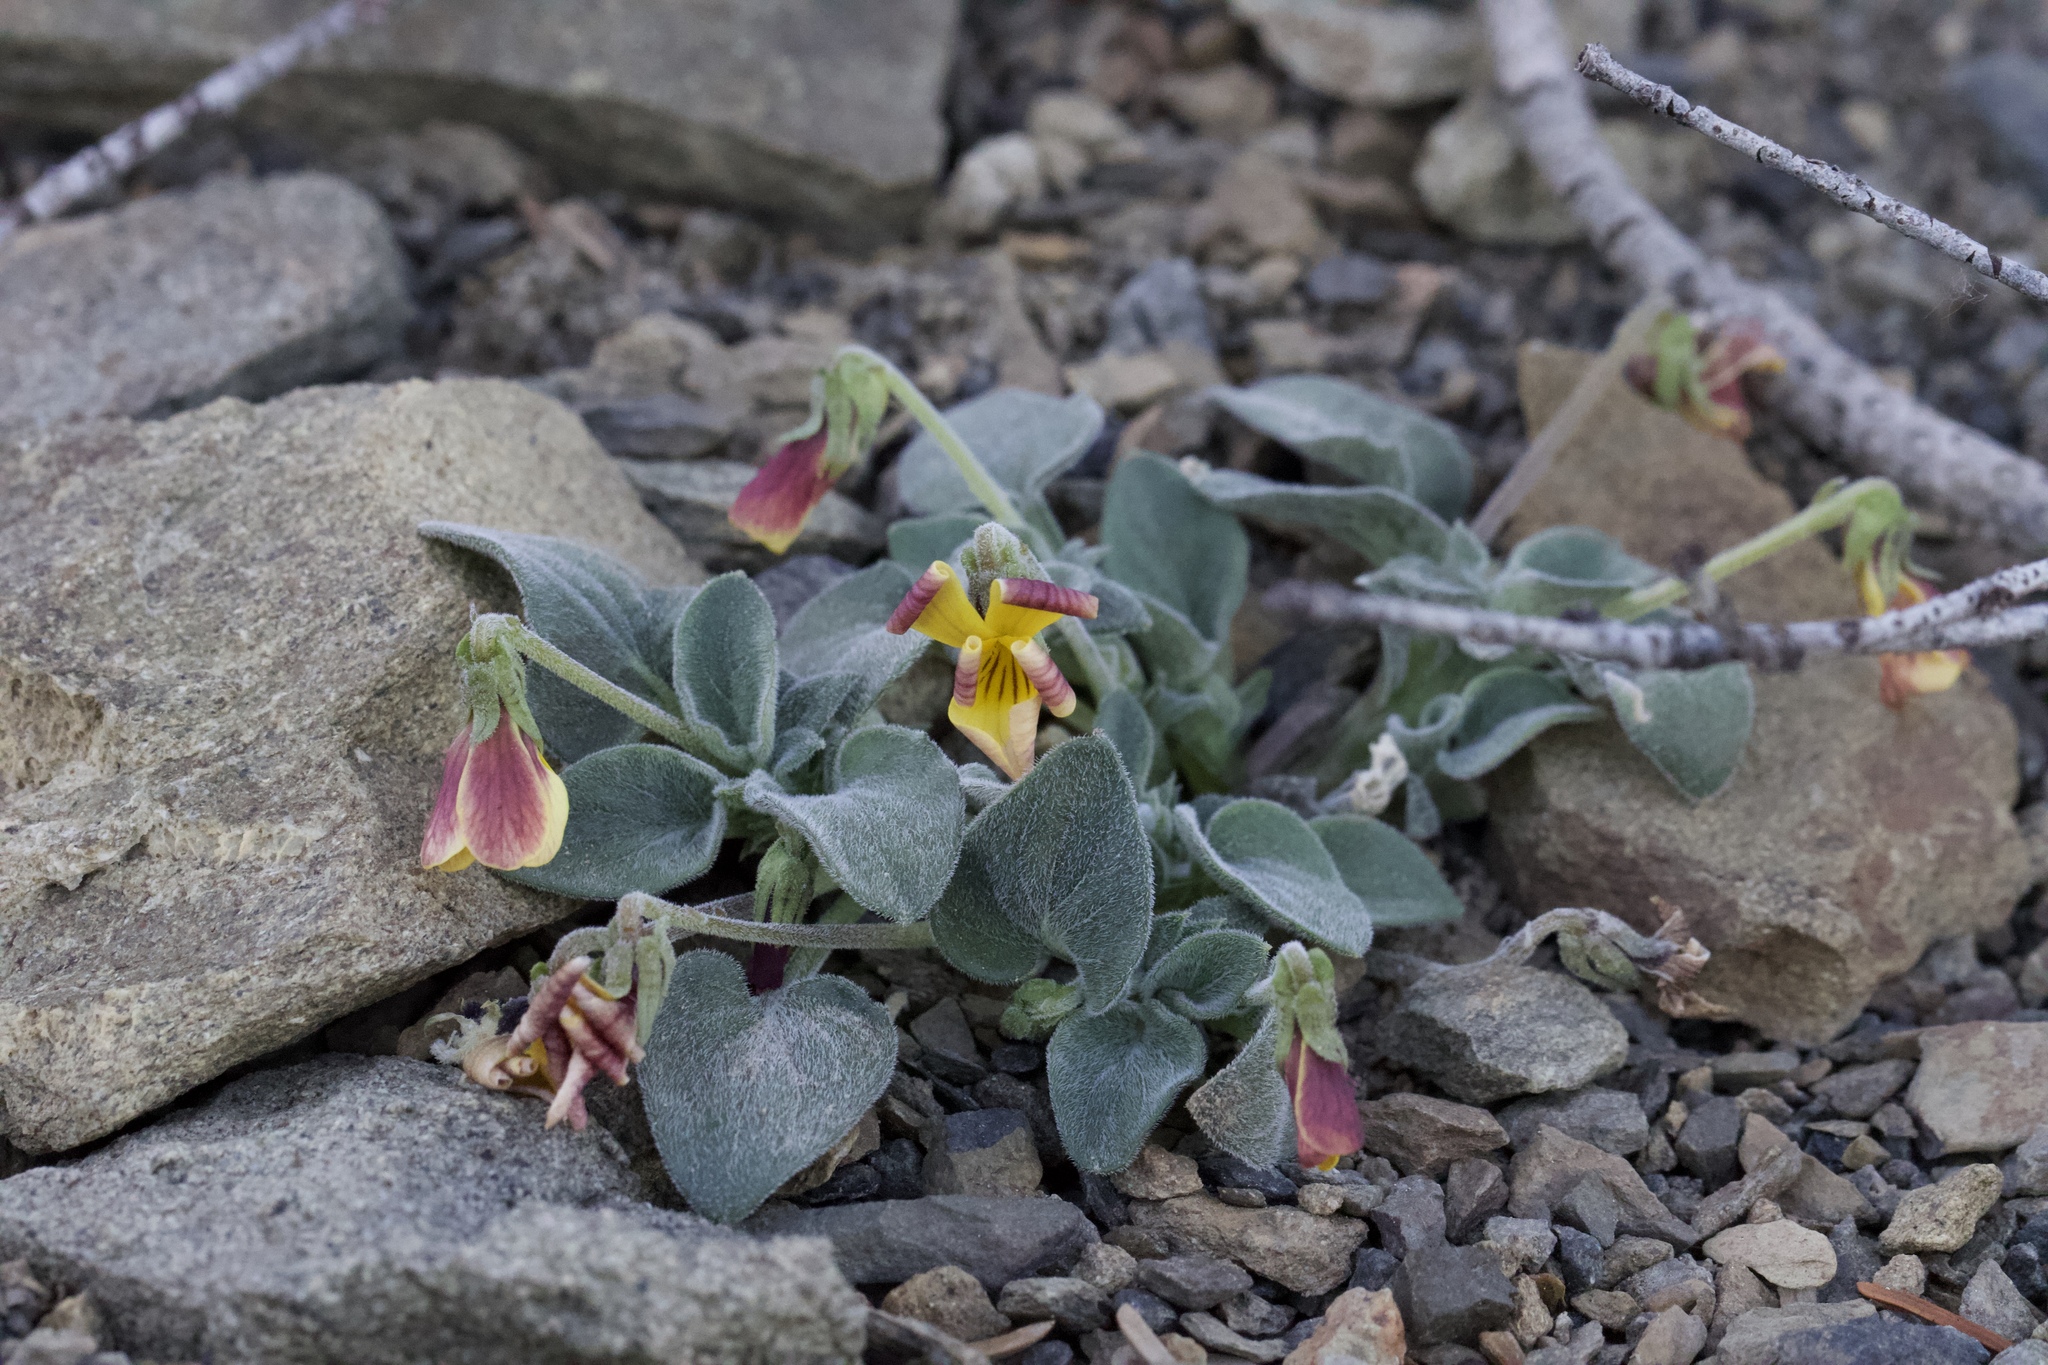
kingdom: Plantae
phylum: Tracheophyta
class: Magnoliopsida
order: Malpighiales
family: Violaceae
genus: Viola
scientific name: Viola purpurea
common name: Pine violet
